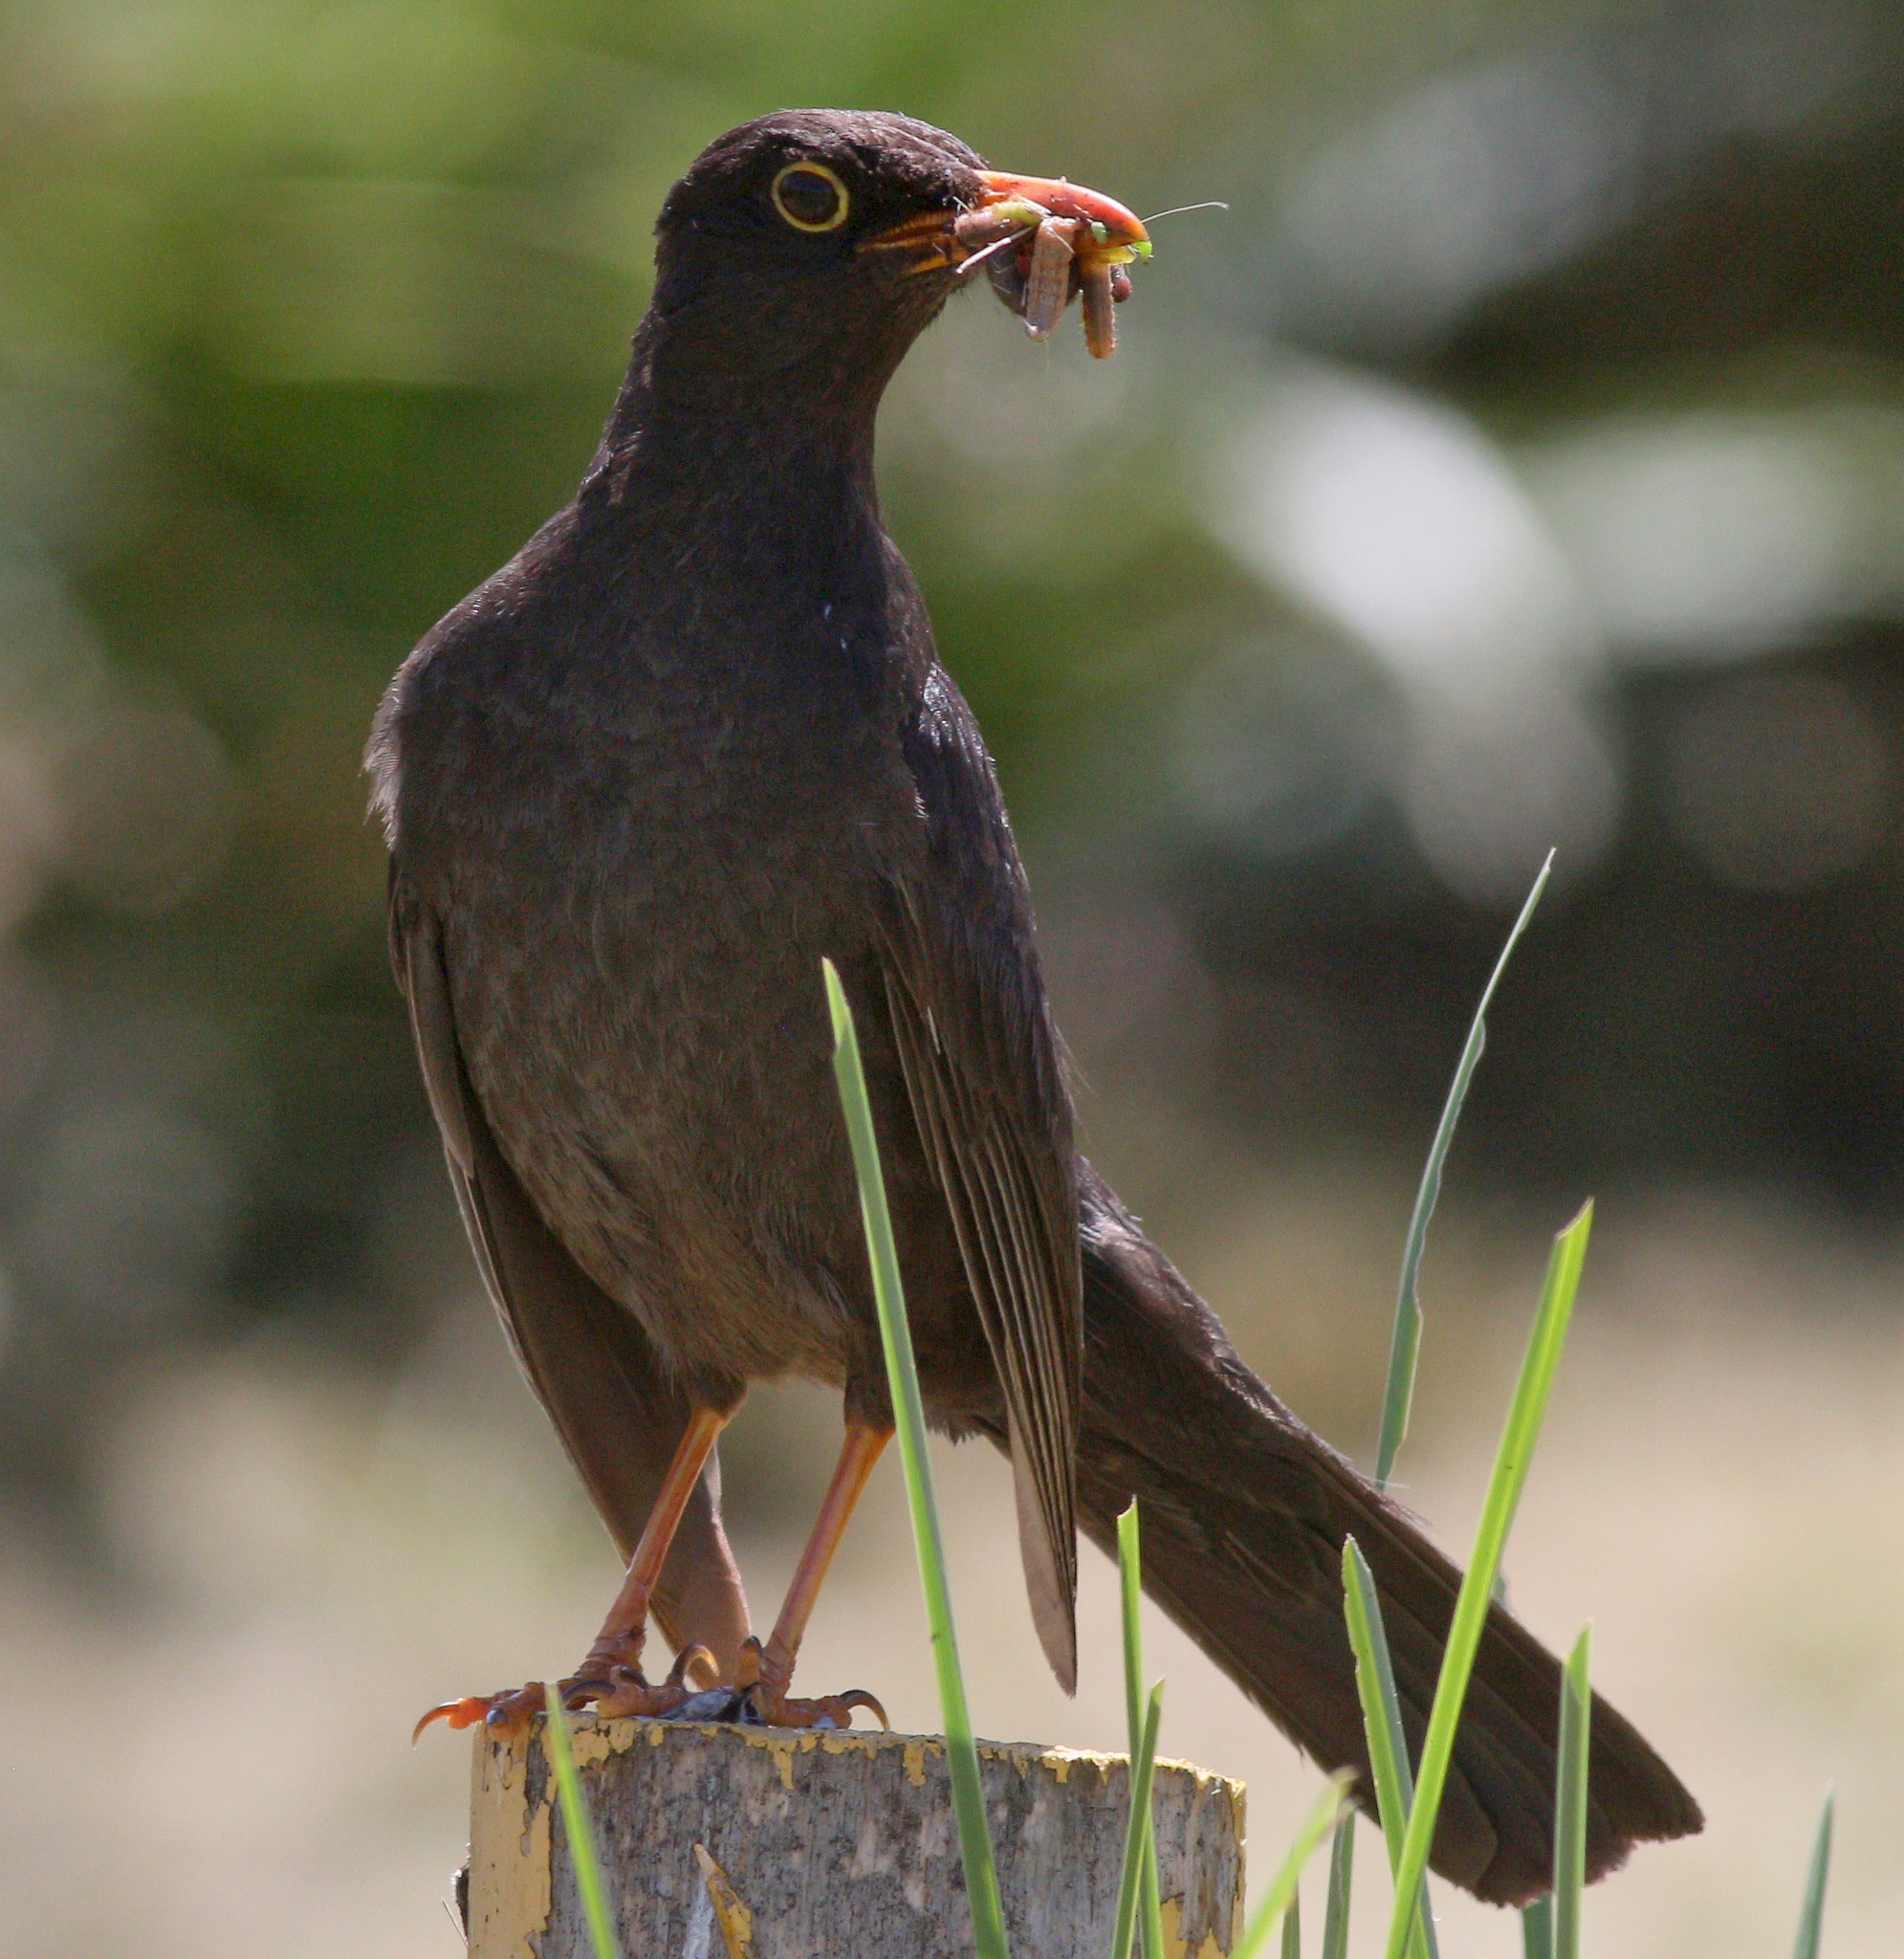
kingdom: Animalia
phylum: Chordata
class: Aves
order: Passeriformes
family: Turdidae
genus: Turdus
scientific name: Turdus chiguanco
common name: Chiguanco thrush
